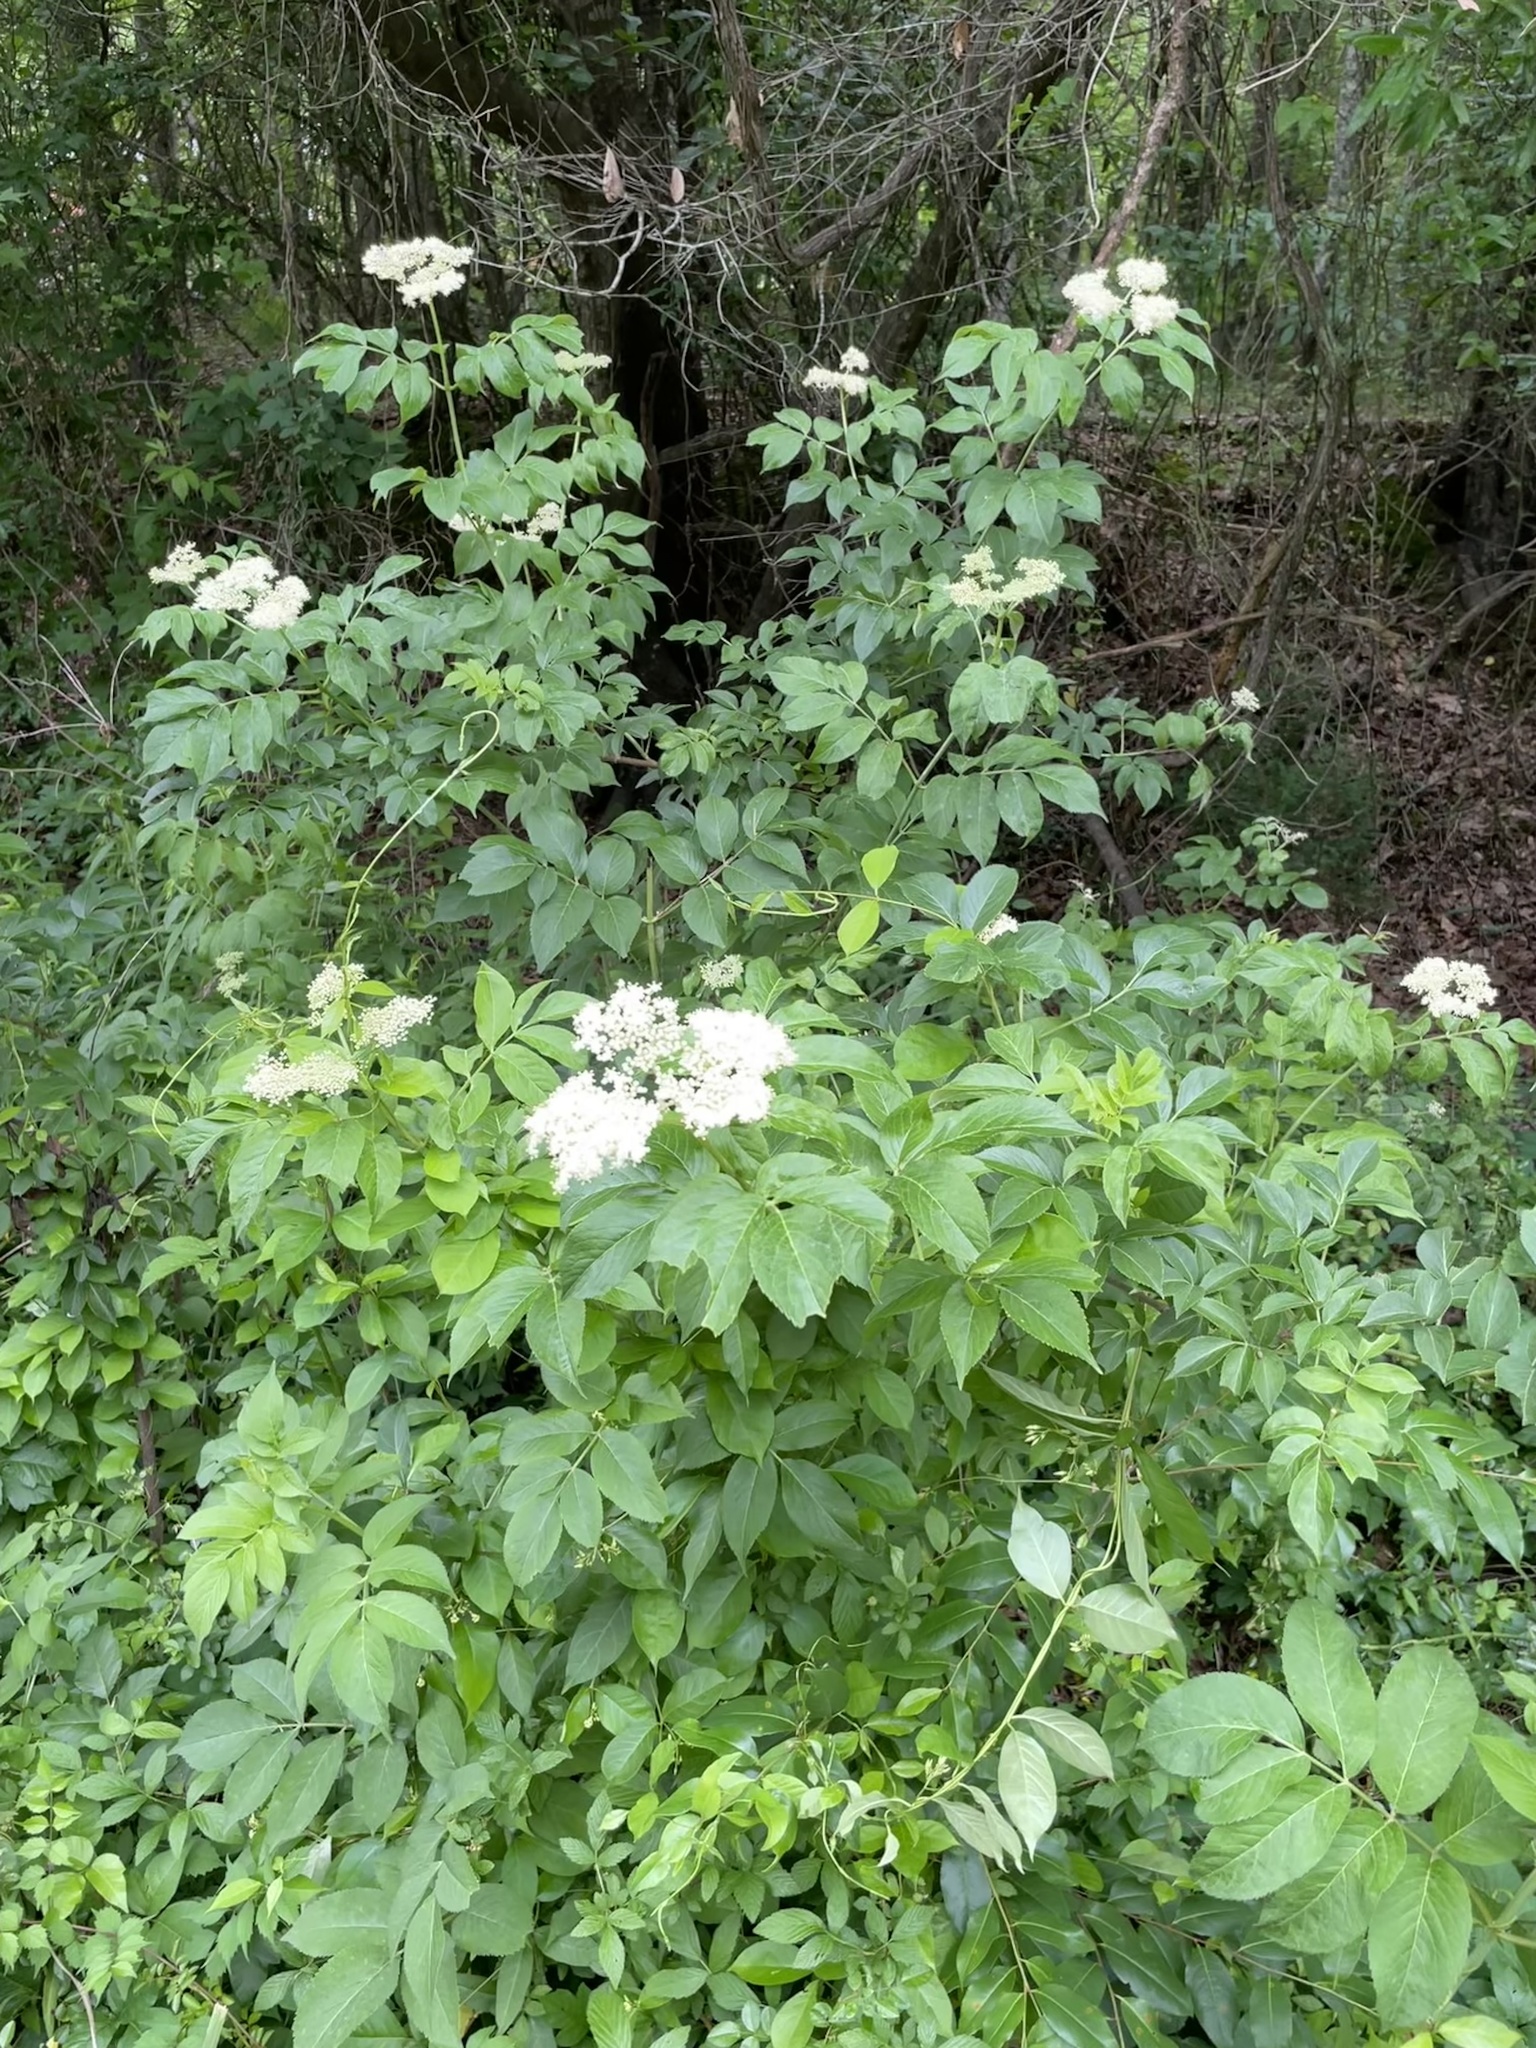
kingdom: Plantae
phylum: Tracheophyta
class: Magnoliopsida
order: Dipsacales
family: Viburnaceae
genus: Sambucus
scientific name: Sambucus canadensis
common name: American elder
